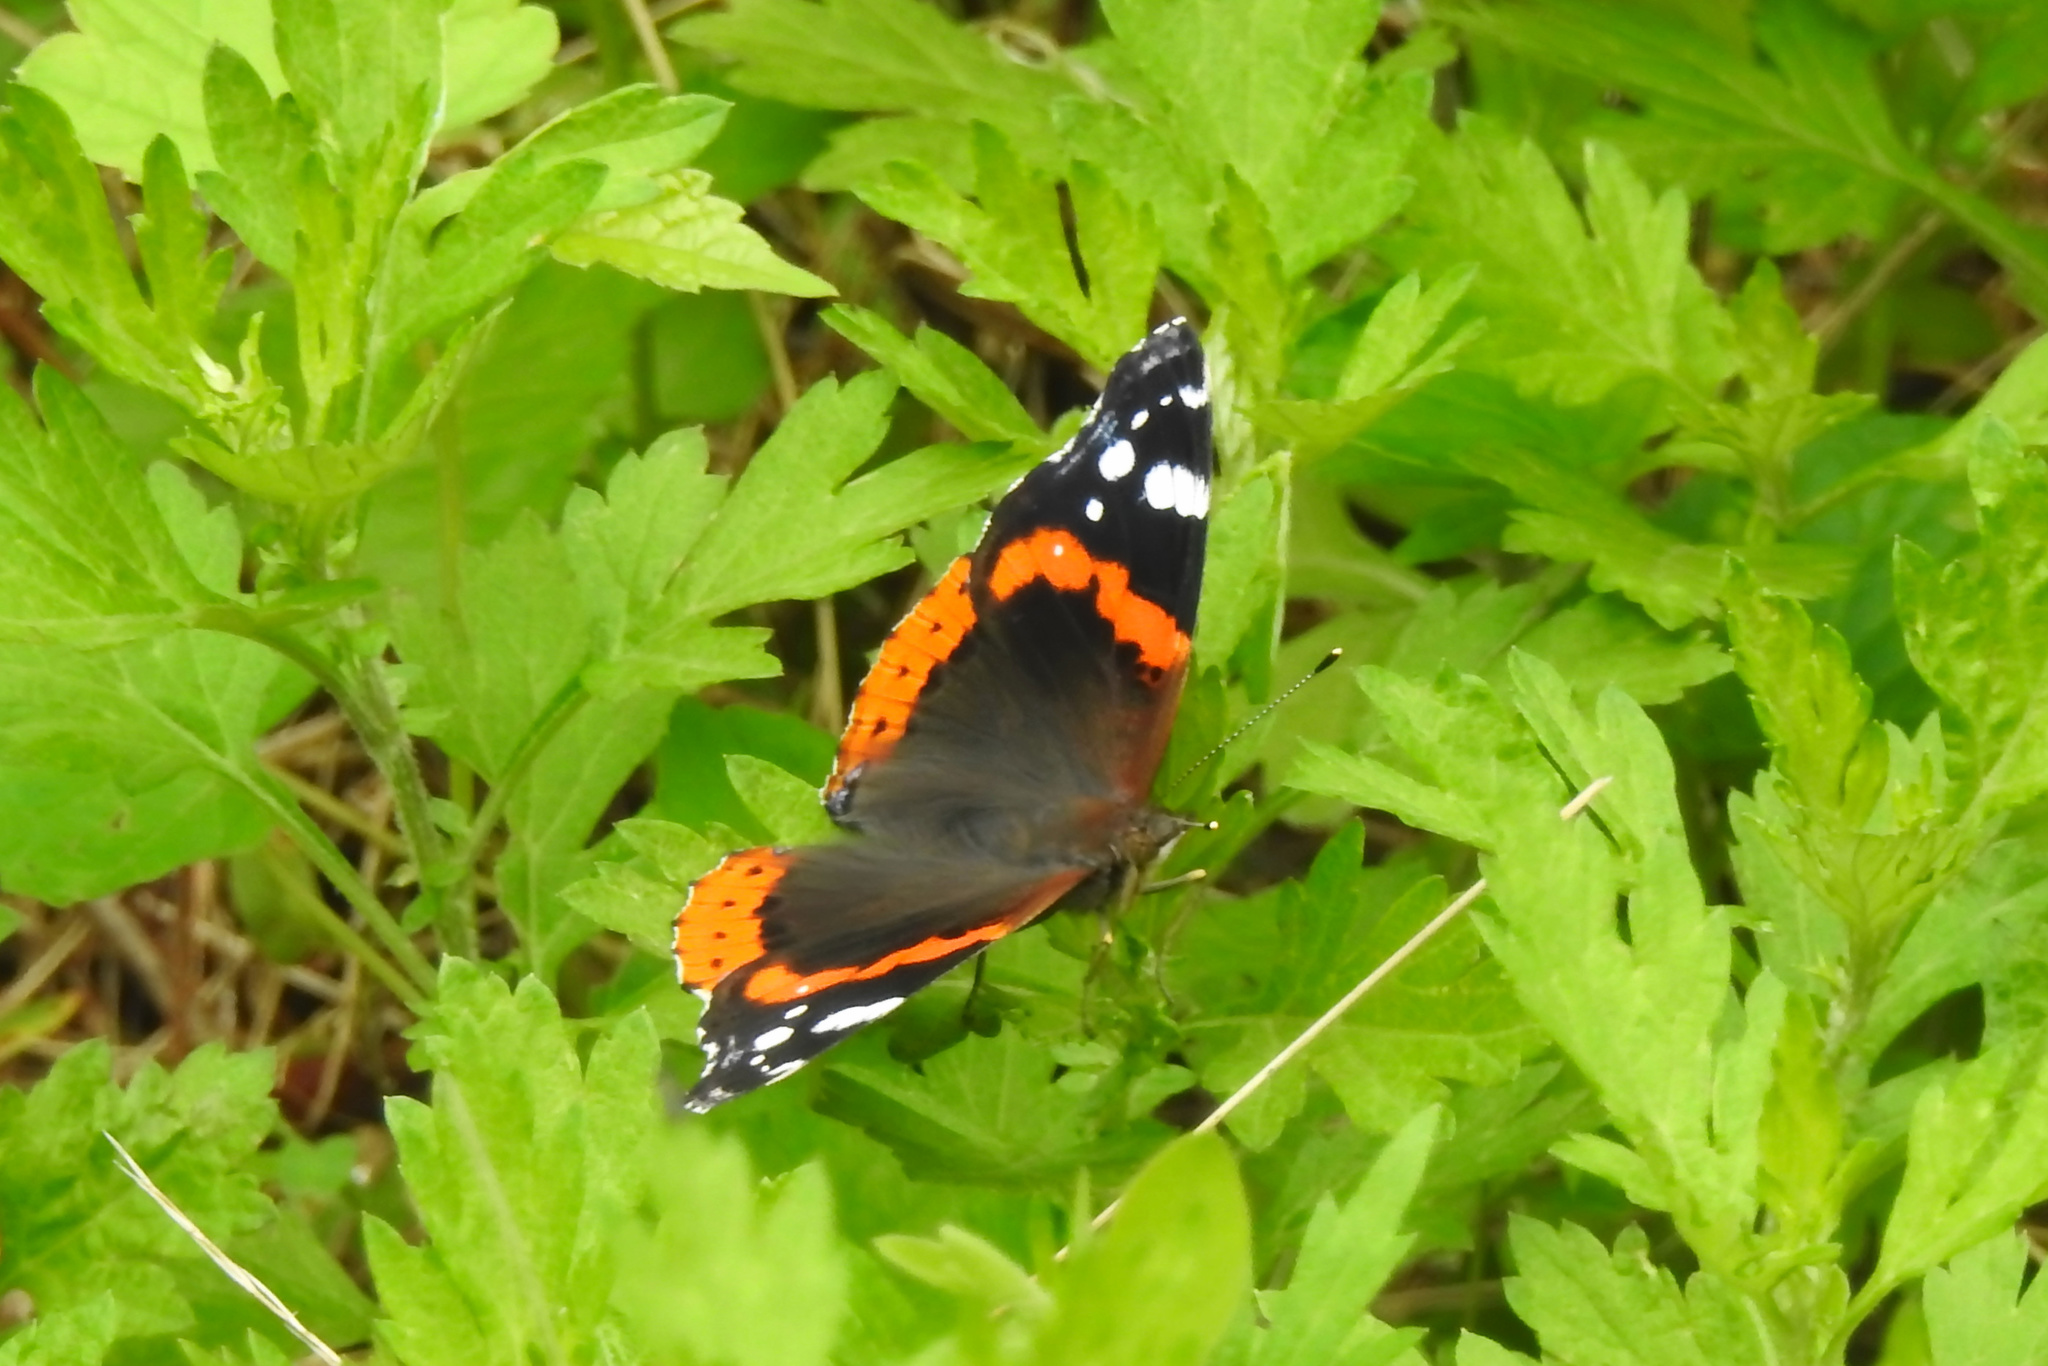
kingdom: Animalia
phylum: Arthropoda
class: Insecta
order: Lepidoptera
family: Nymphalidae
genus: Vanessa
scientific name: Vanessa atalanta
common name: Red admiral
